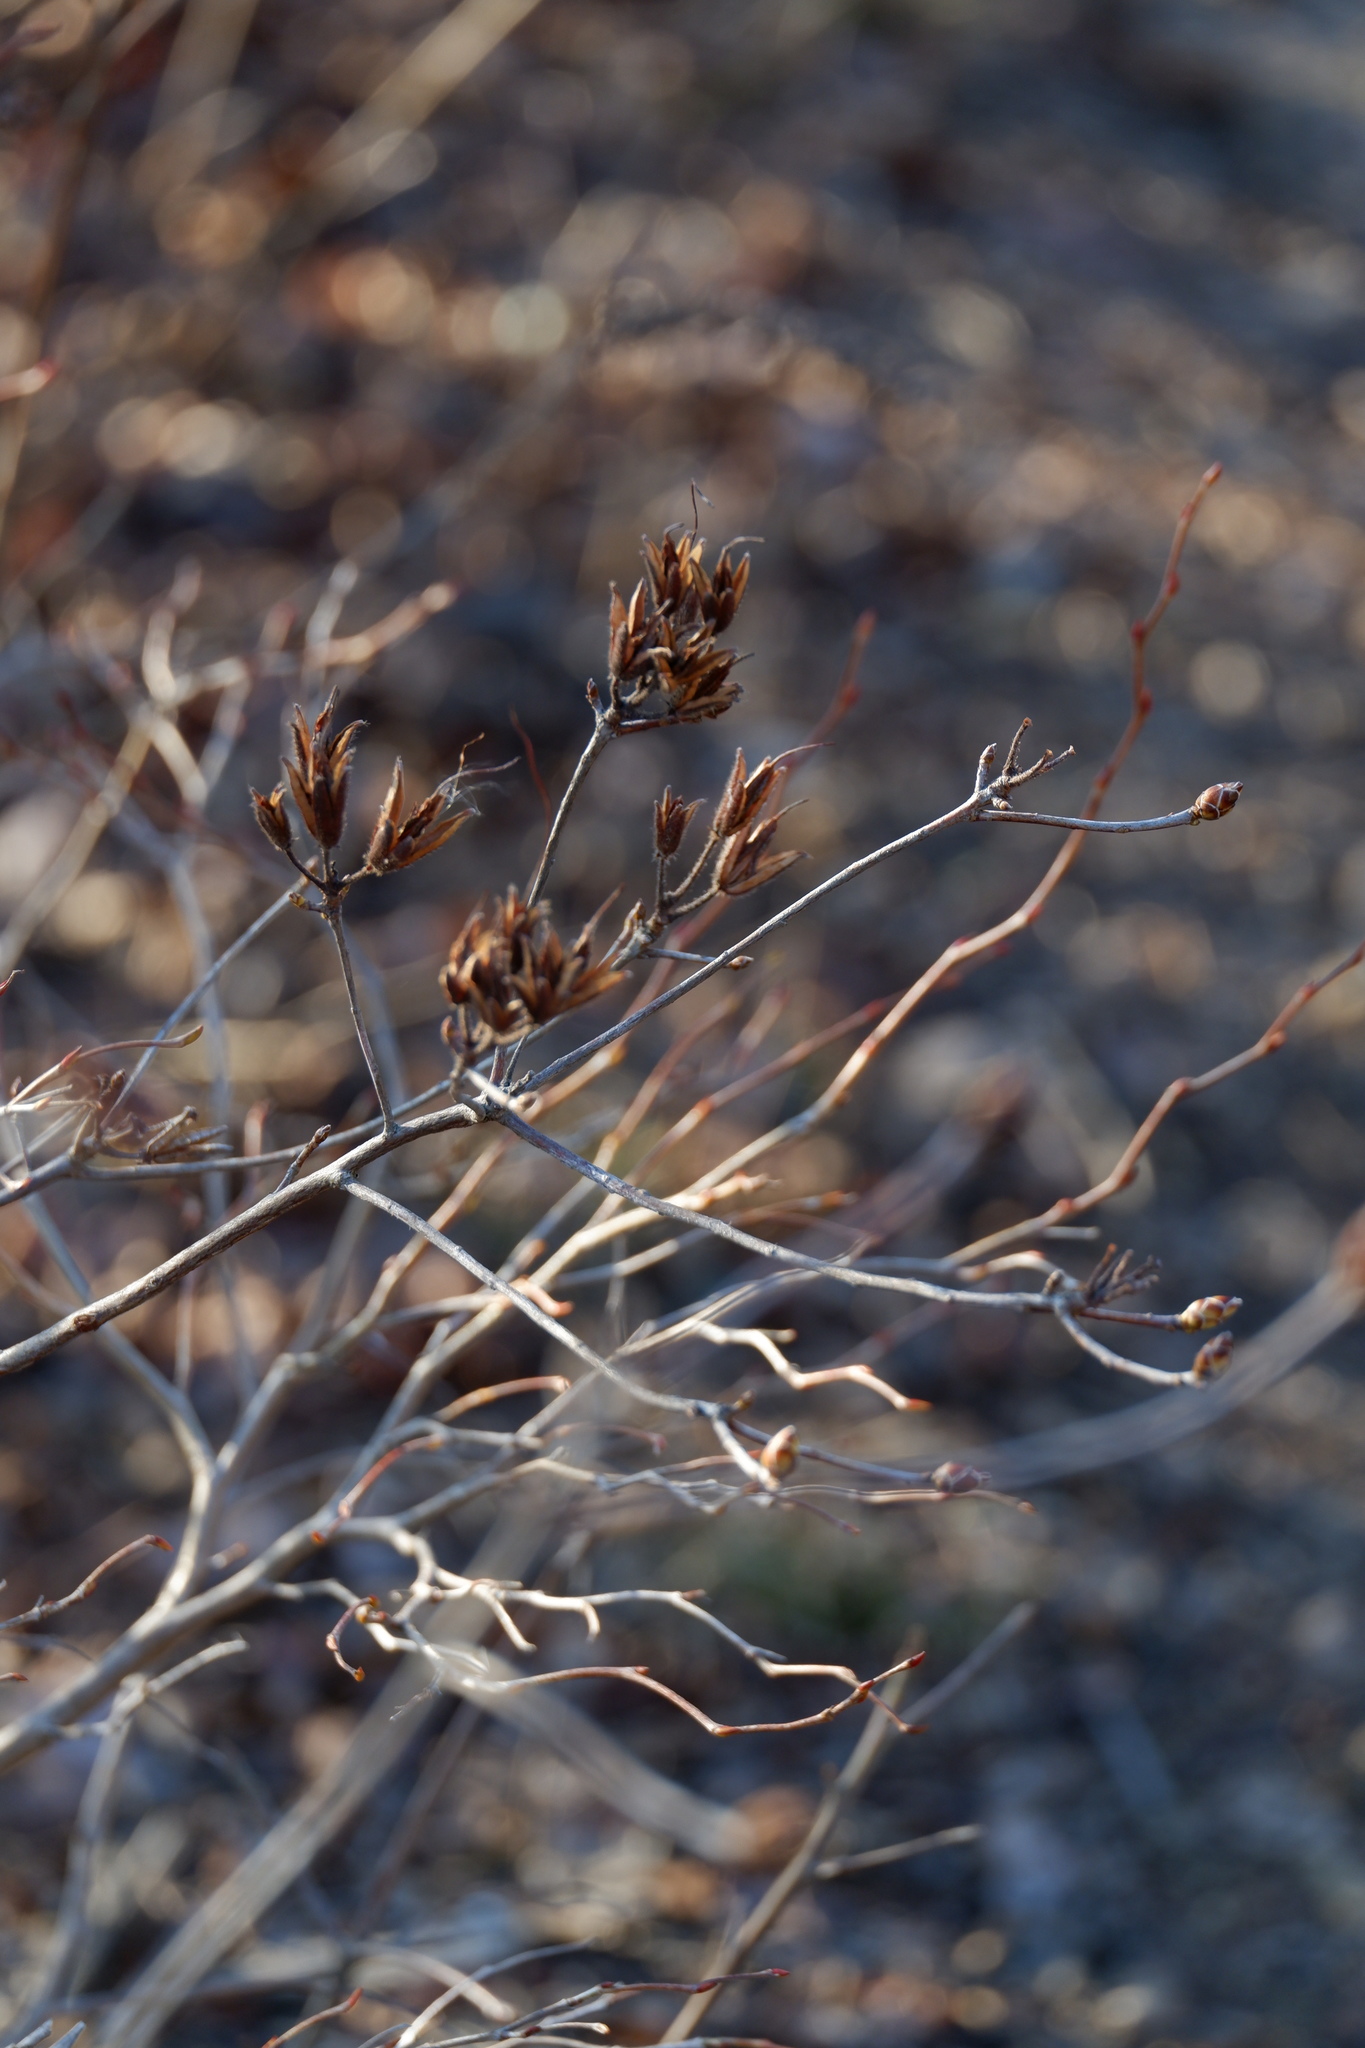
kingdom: Plantae
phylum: Tracheophyta
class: Magnoliopsida
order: Ericales
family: Ericaceae
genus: Rhododendron
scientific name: Rhododendron viscosum
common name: Clammy azalea
